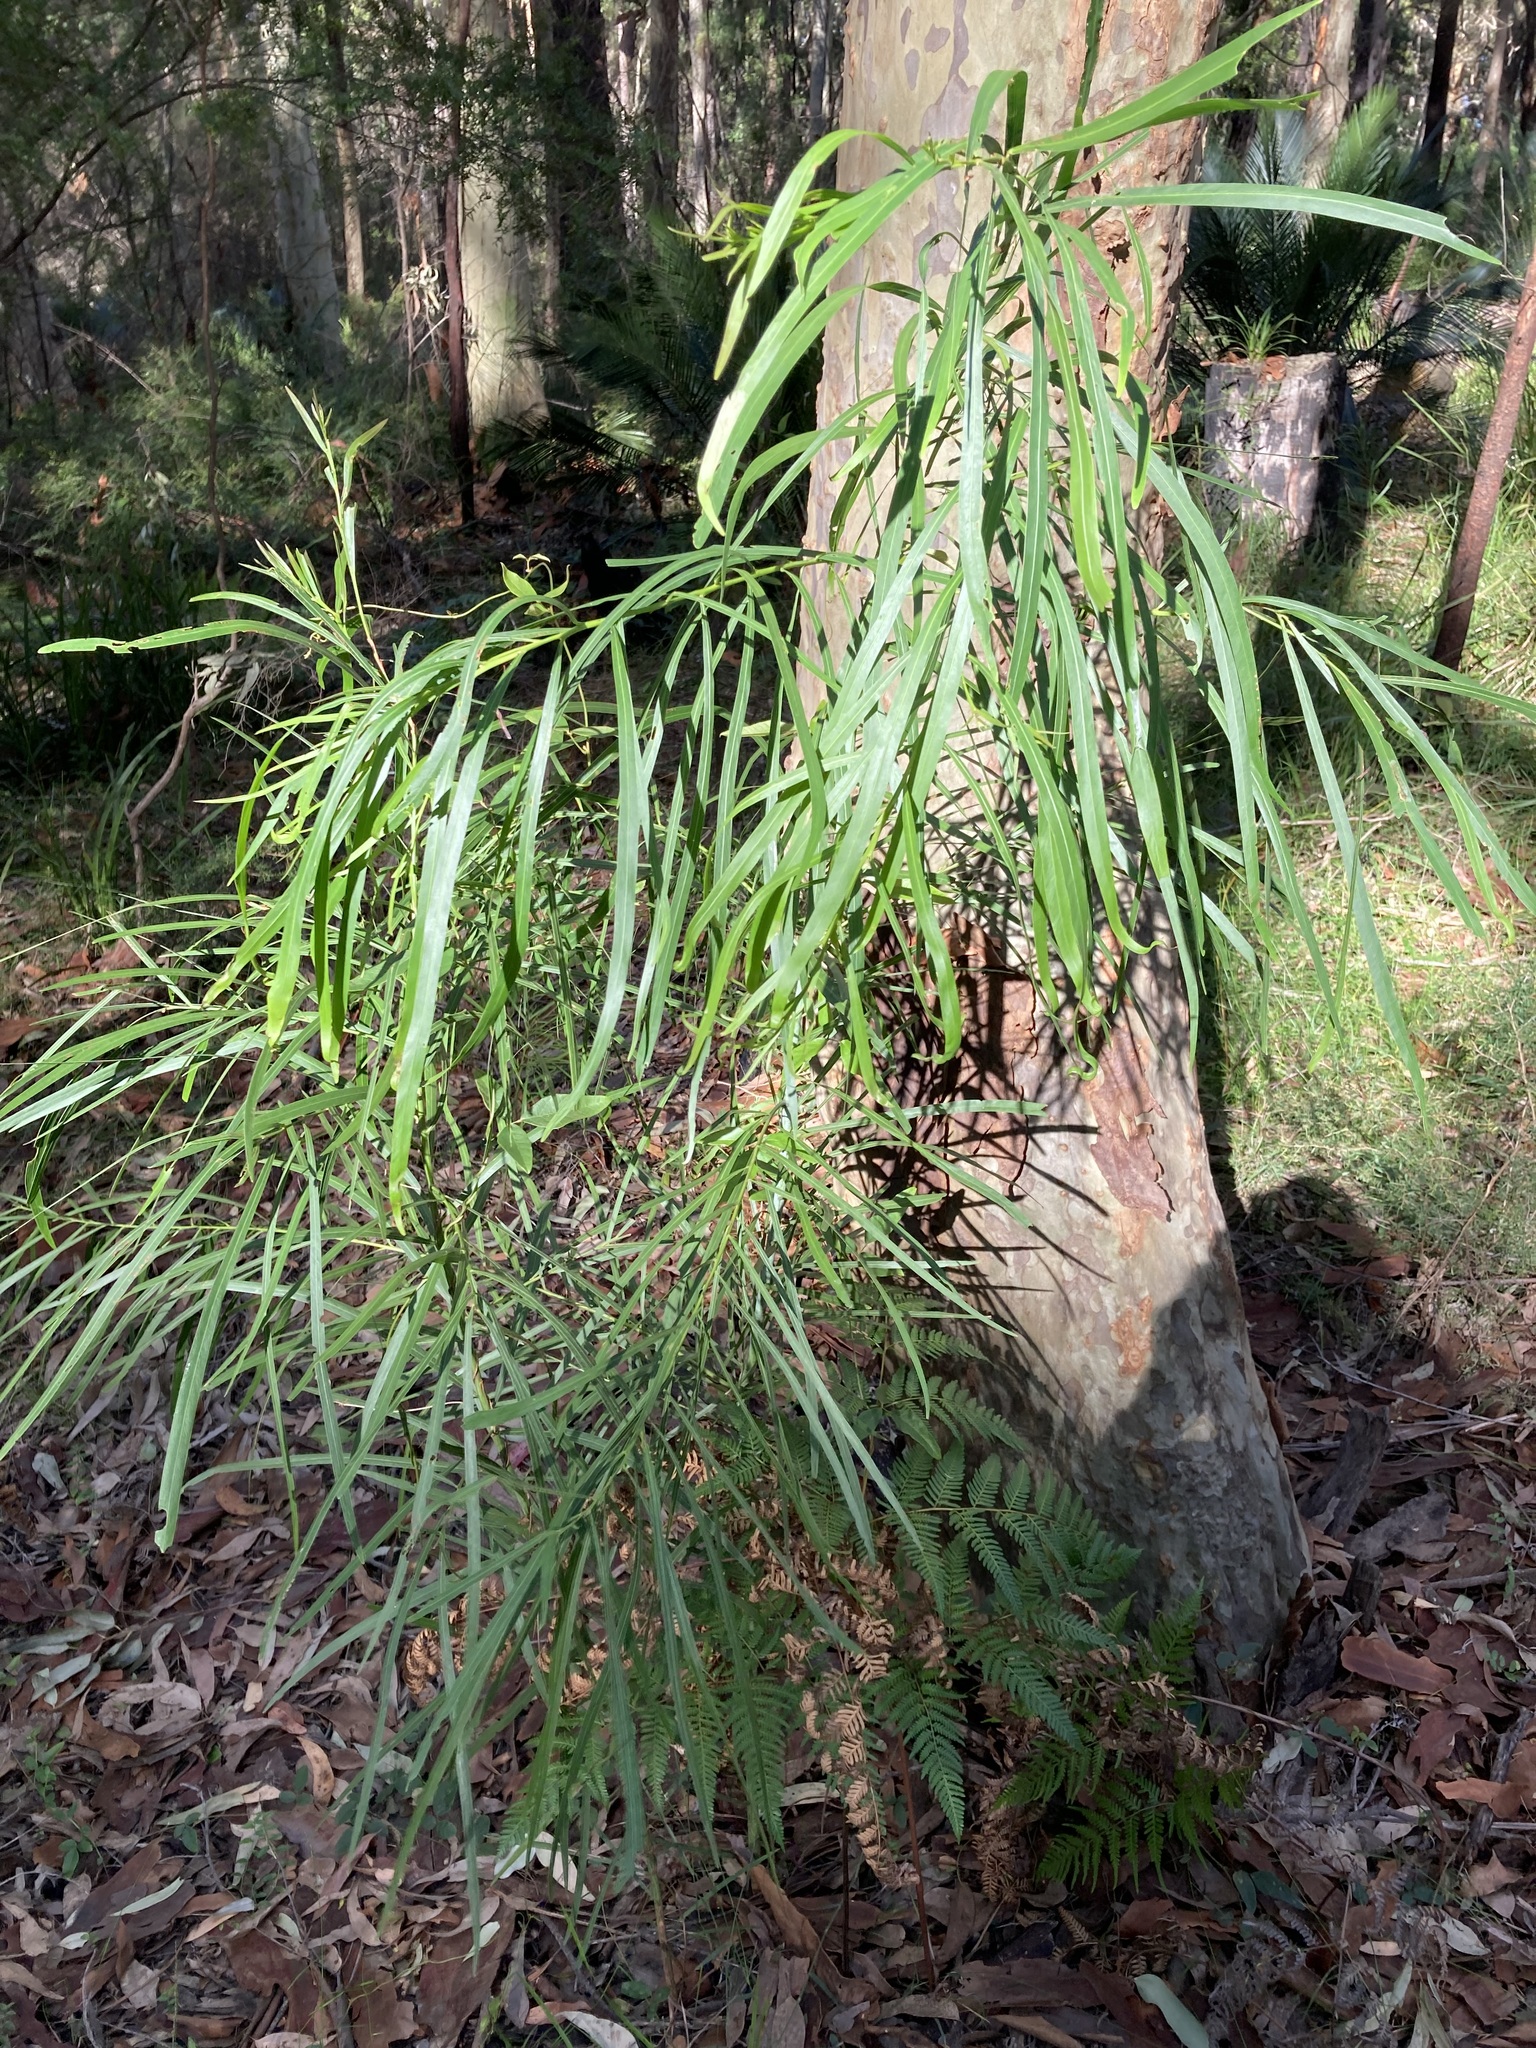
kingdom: Plantae
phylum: Tracheophyta
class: Magnoliopsida
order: Fabales
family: Fabaceae
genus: Acacia
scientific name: Acacia mabellae
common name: Black wattle
